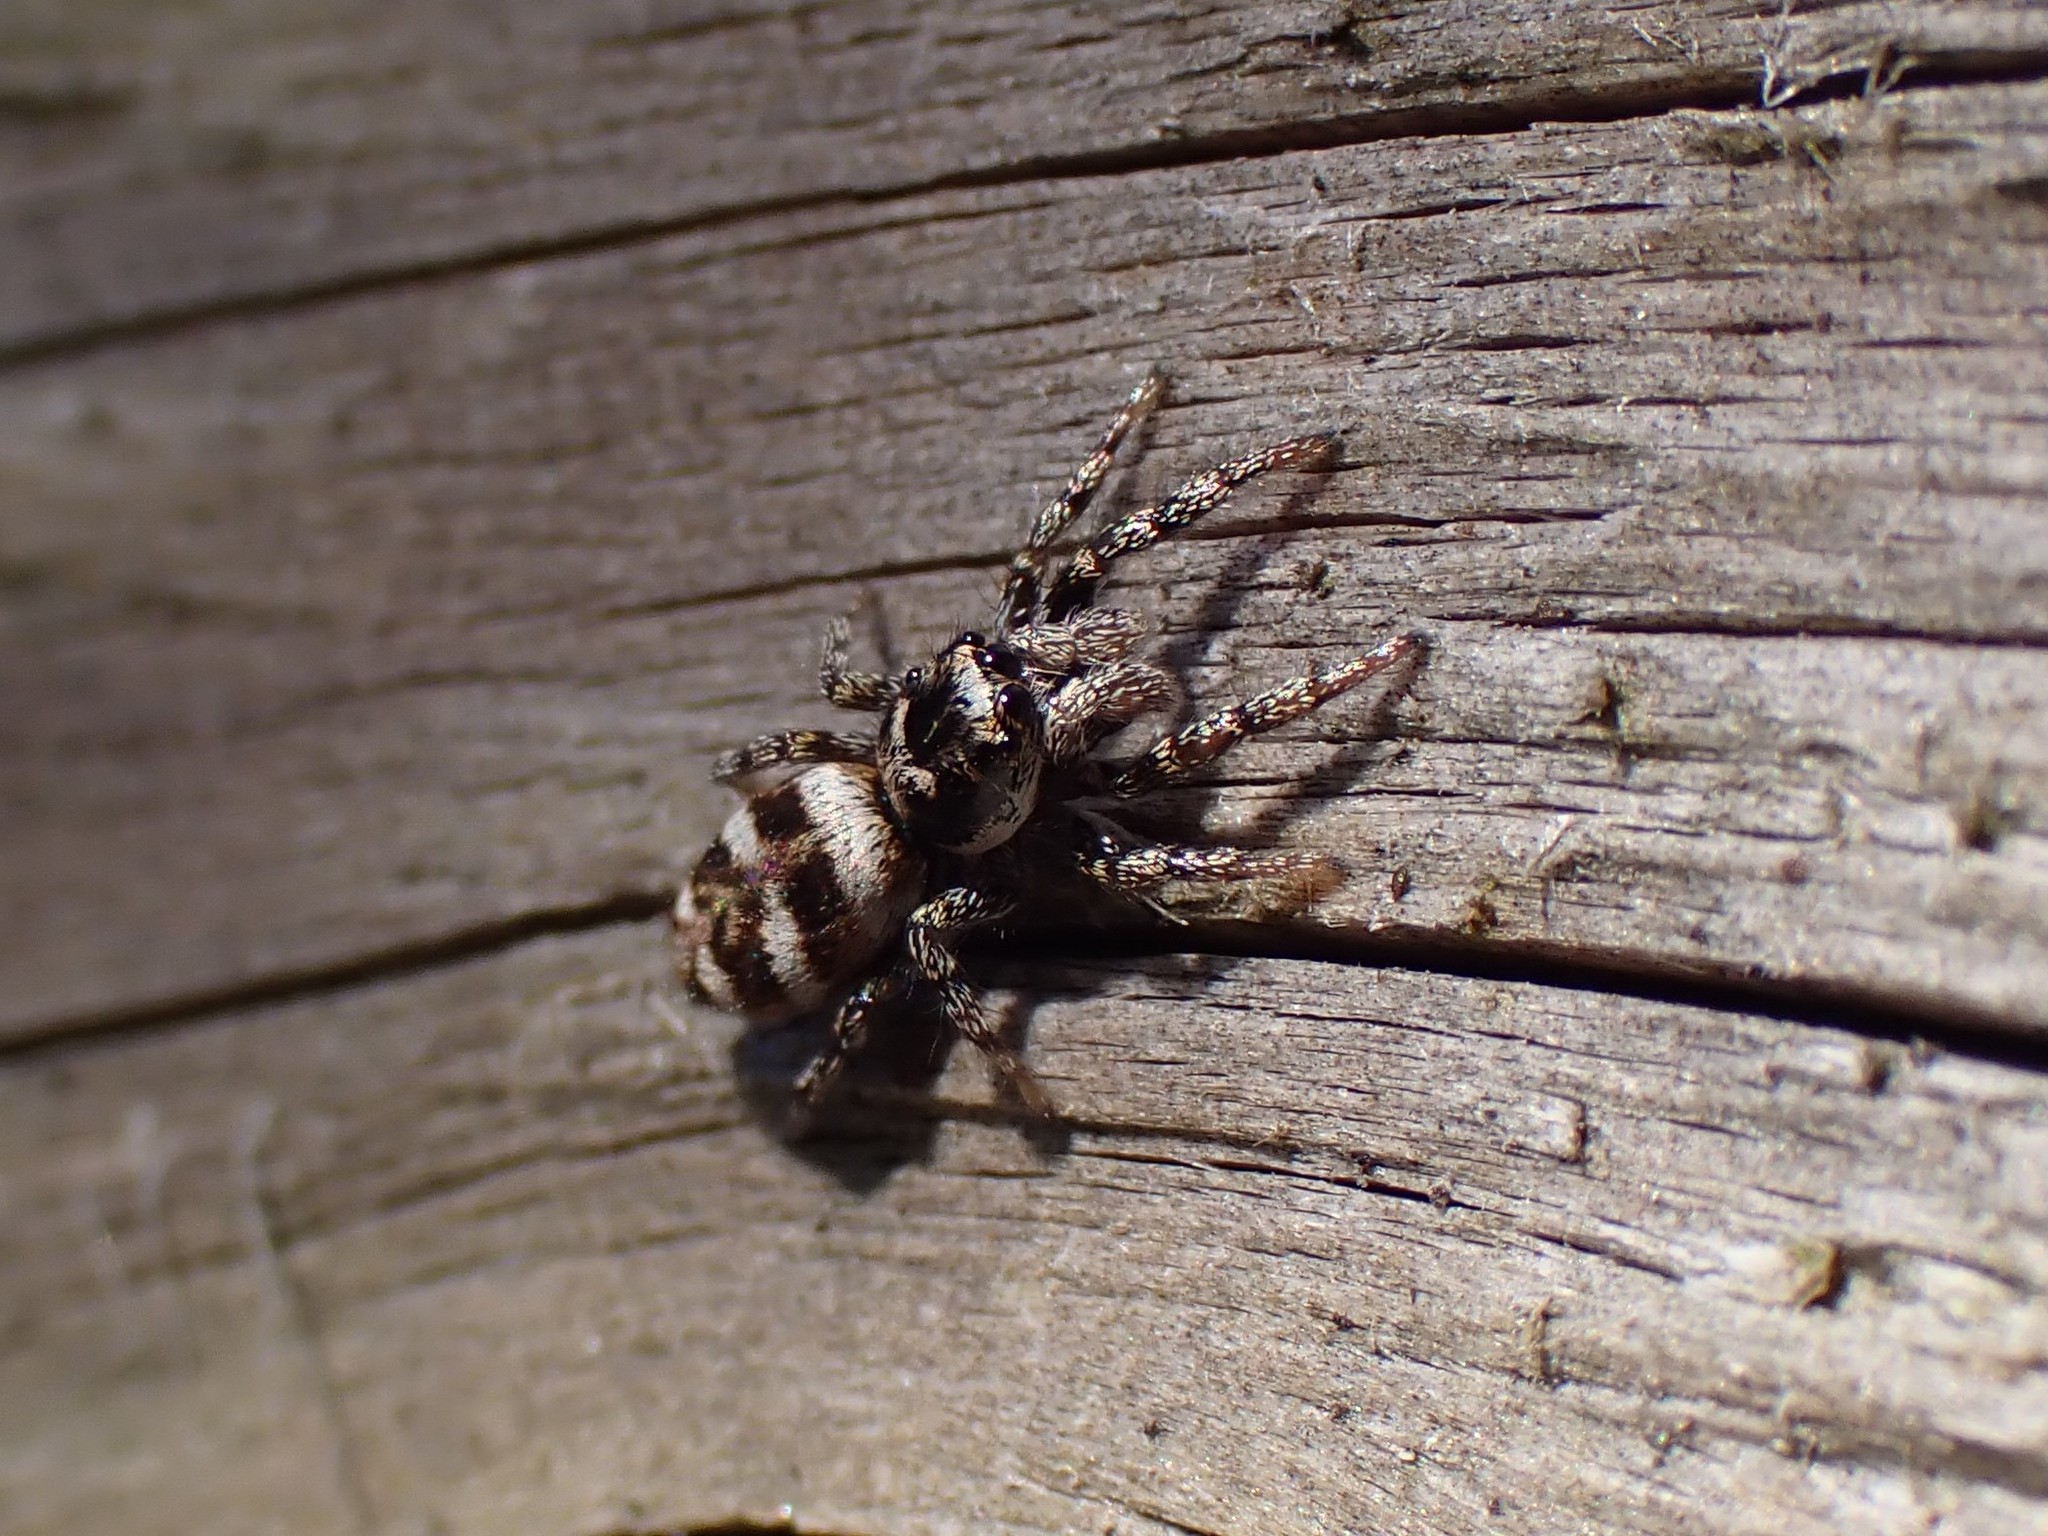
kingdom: Animalia
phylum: Arthropoda
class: Arachnida
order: Araneae
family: Salticidae
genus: Salticus
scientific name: Salticus scenicus
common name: Zebra jumper
